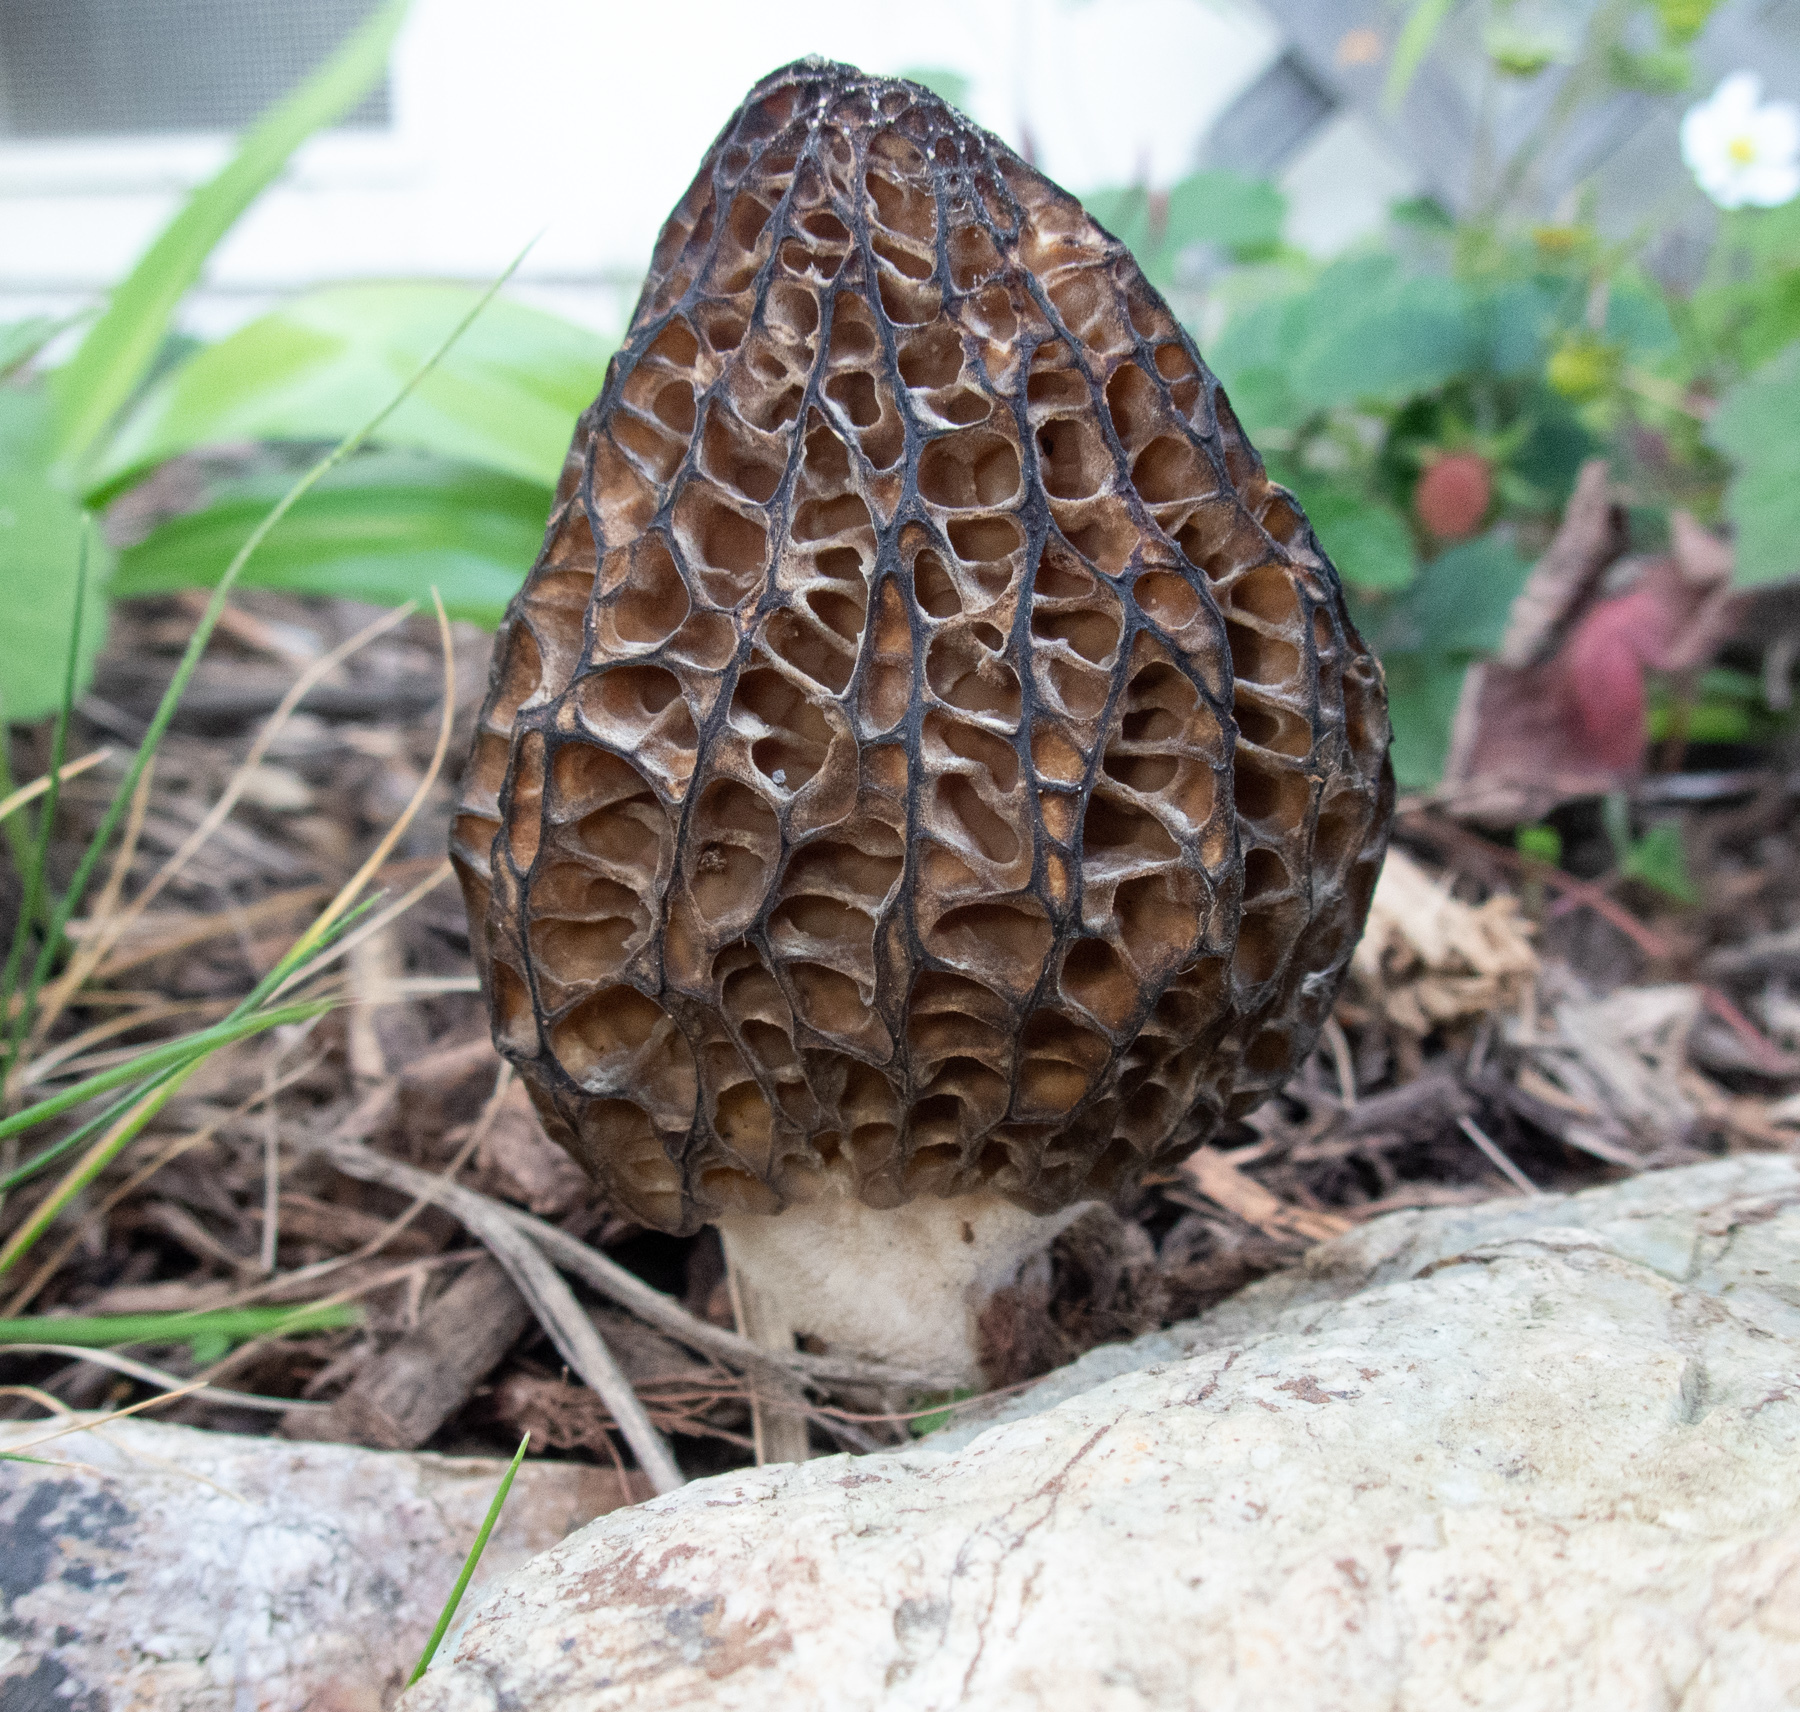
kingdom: Fungi
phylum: Ascomycota
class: Pezizomycetes
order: Pezizales
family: Morchellaceae
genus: Morchella
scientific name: Morchella importuna
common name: Landscaping black morel
